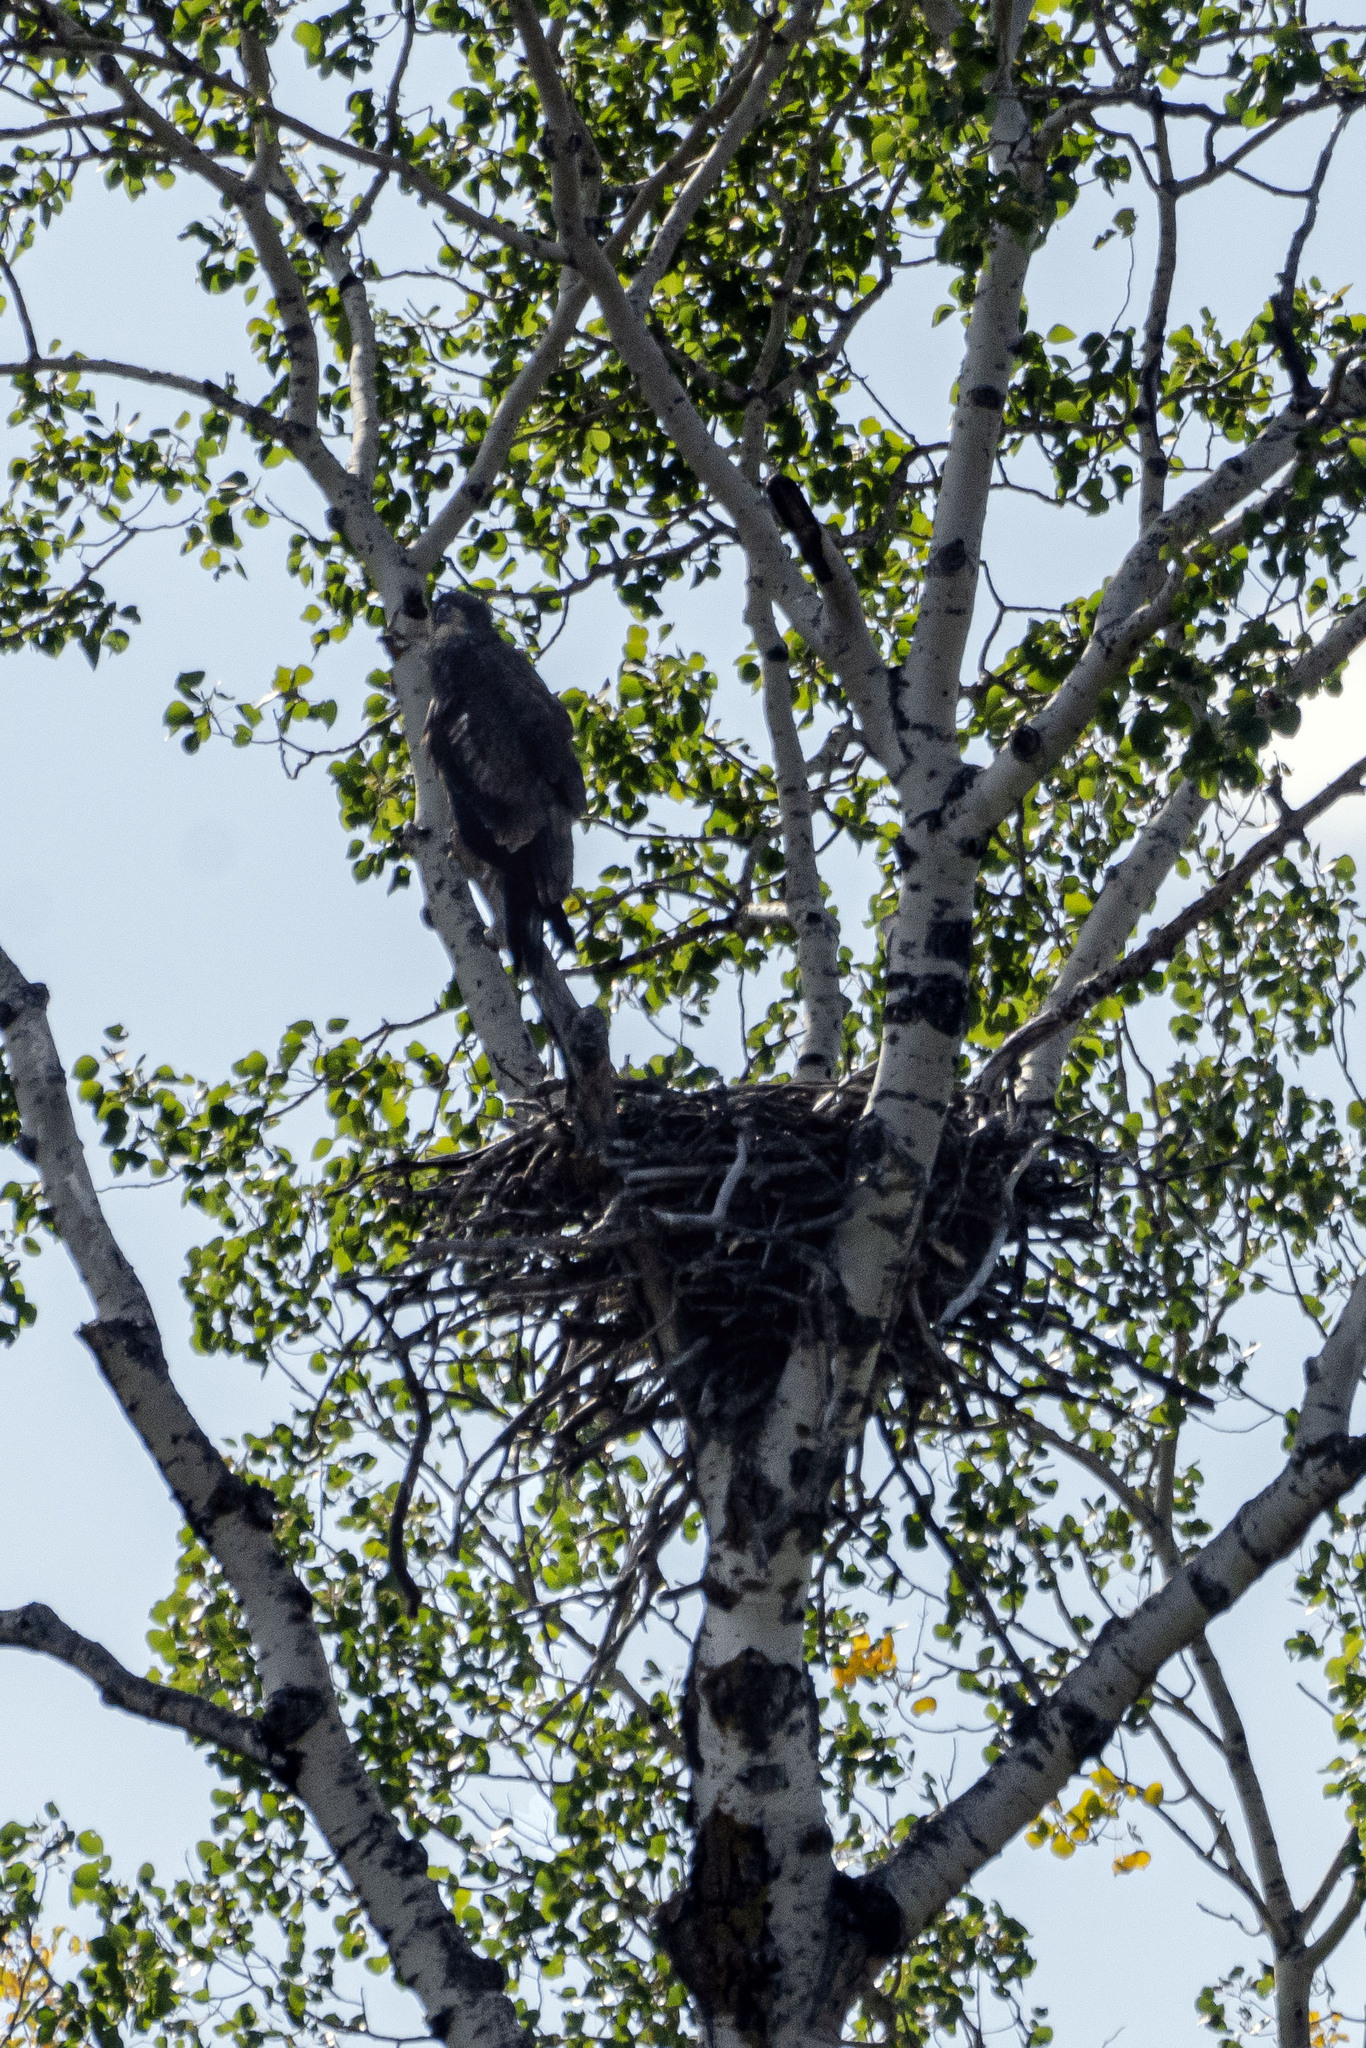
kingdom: Animalia
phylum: Chordata
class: Aves
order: Accipitriformes
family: Accipitridae
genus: Haliaeetus
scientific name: Haliaeetus leucocephalus
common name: Bald eagle
